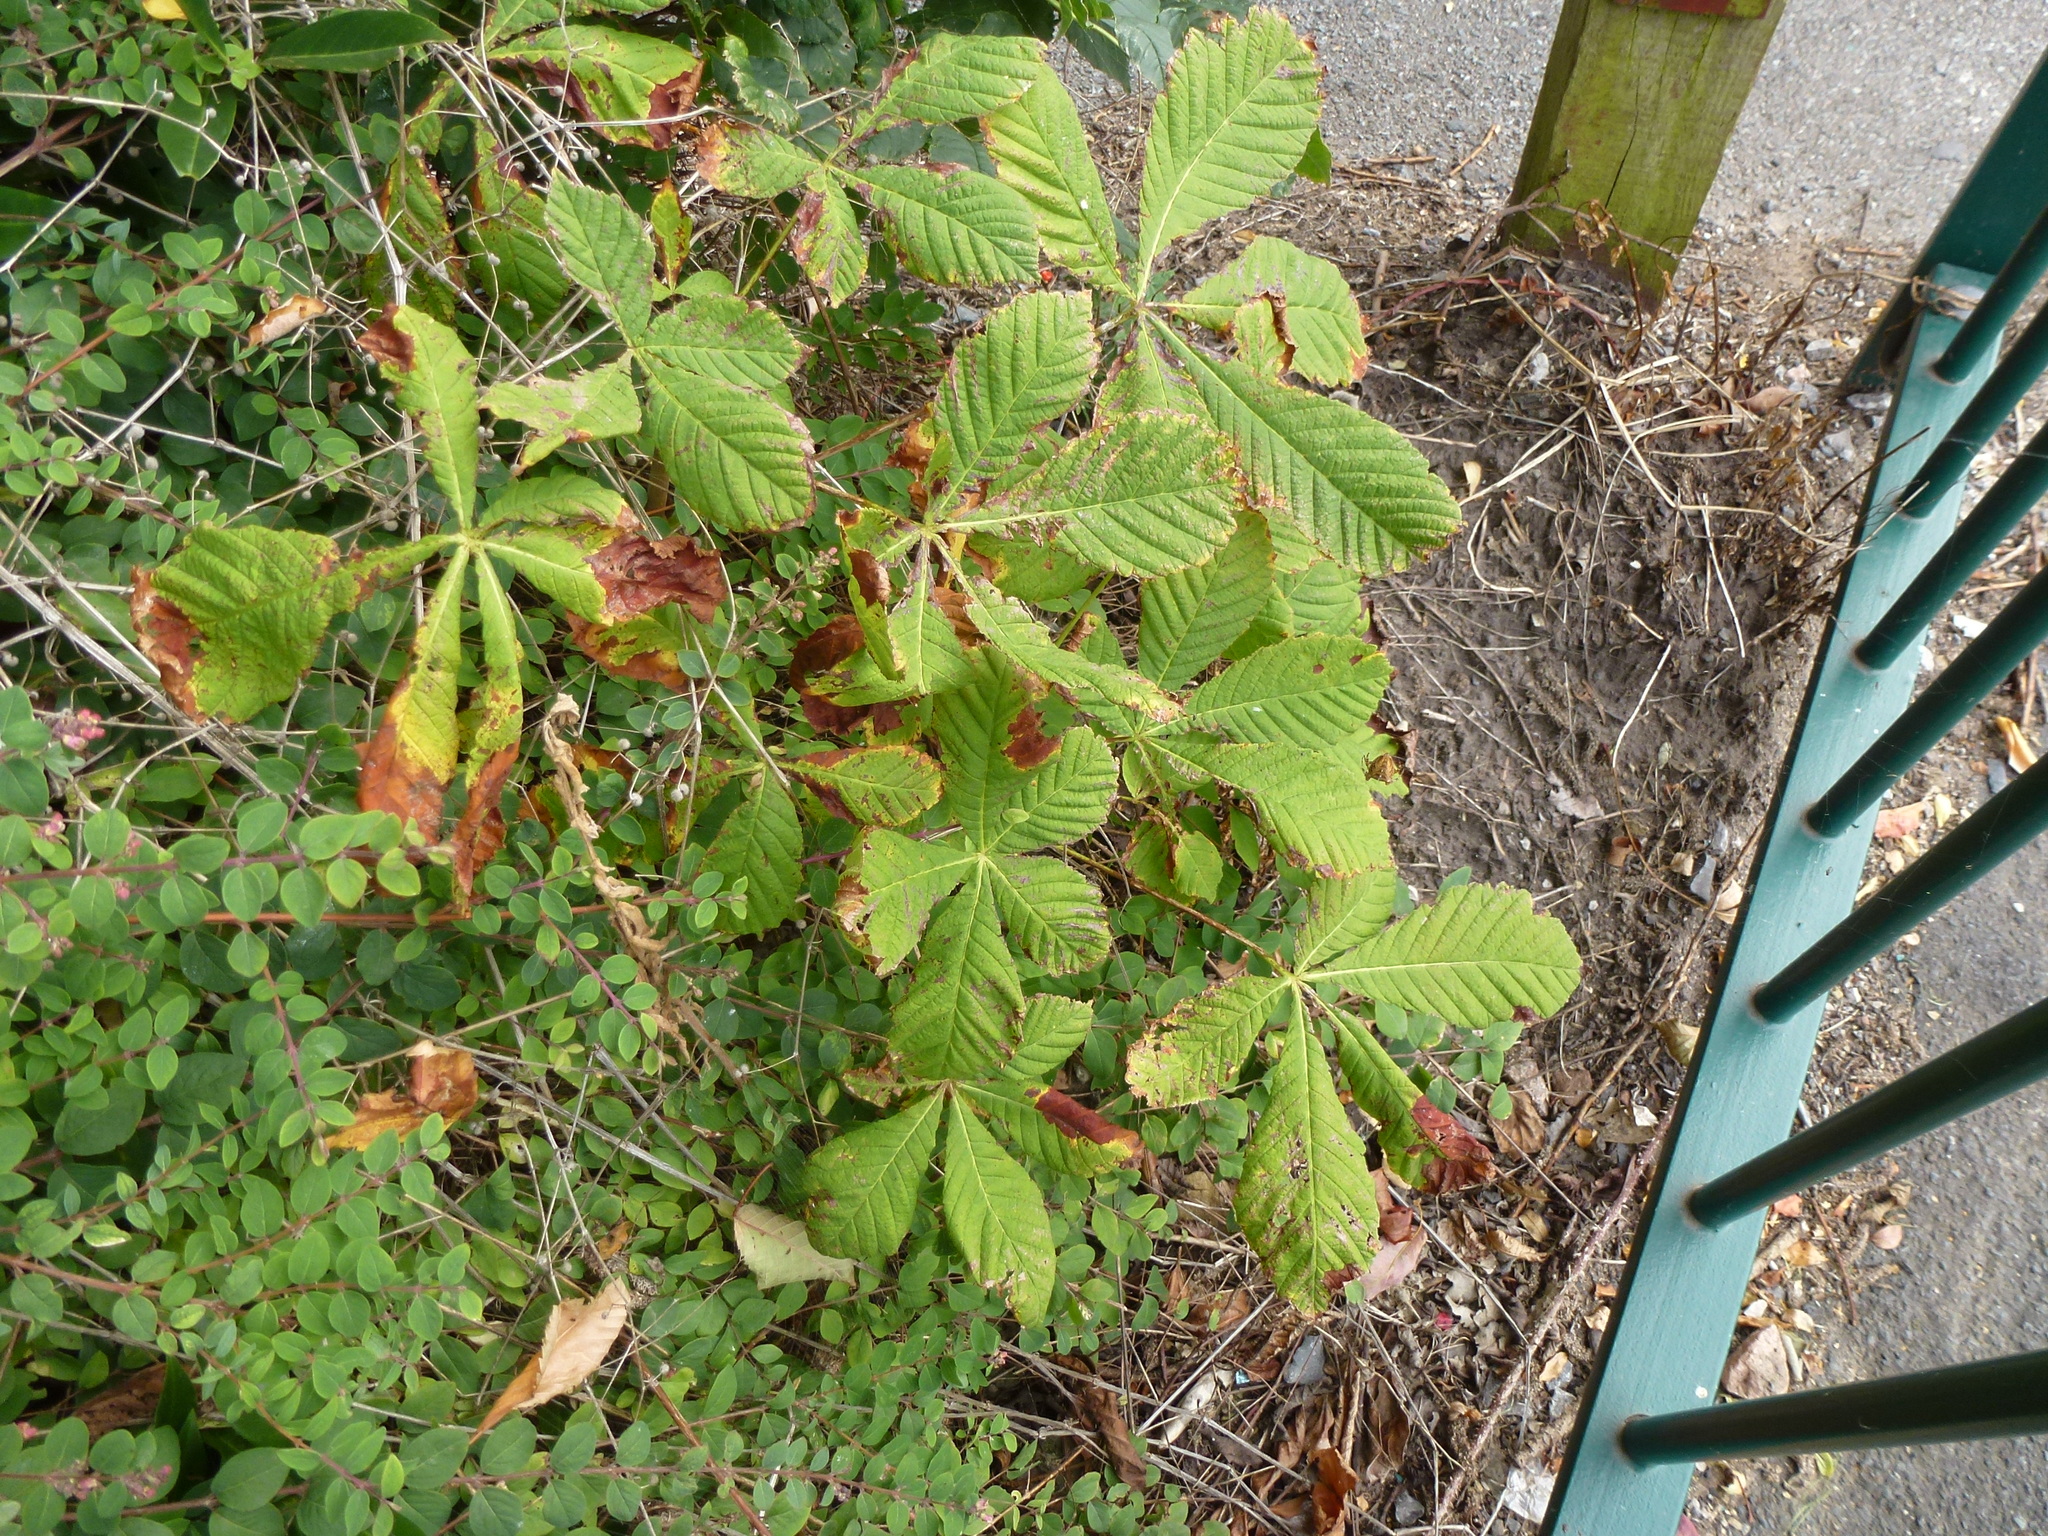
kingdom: Fungi
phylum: Ascomycota
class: Dothideomycetes
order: Botryosphaeriales
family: Phyllostictaceae
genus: Phyllosticta
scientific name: Phyllosticta paviae
